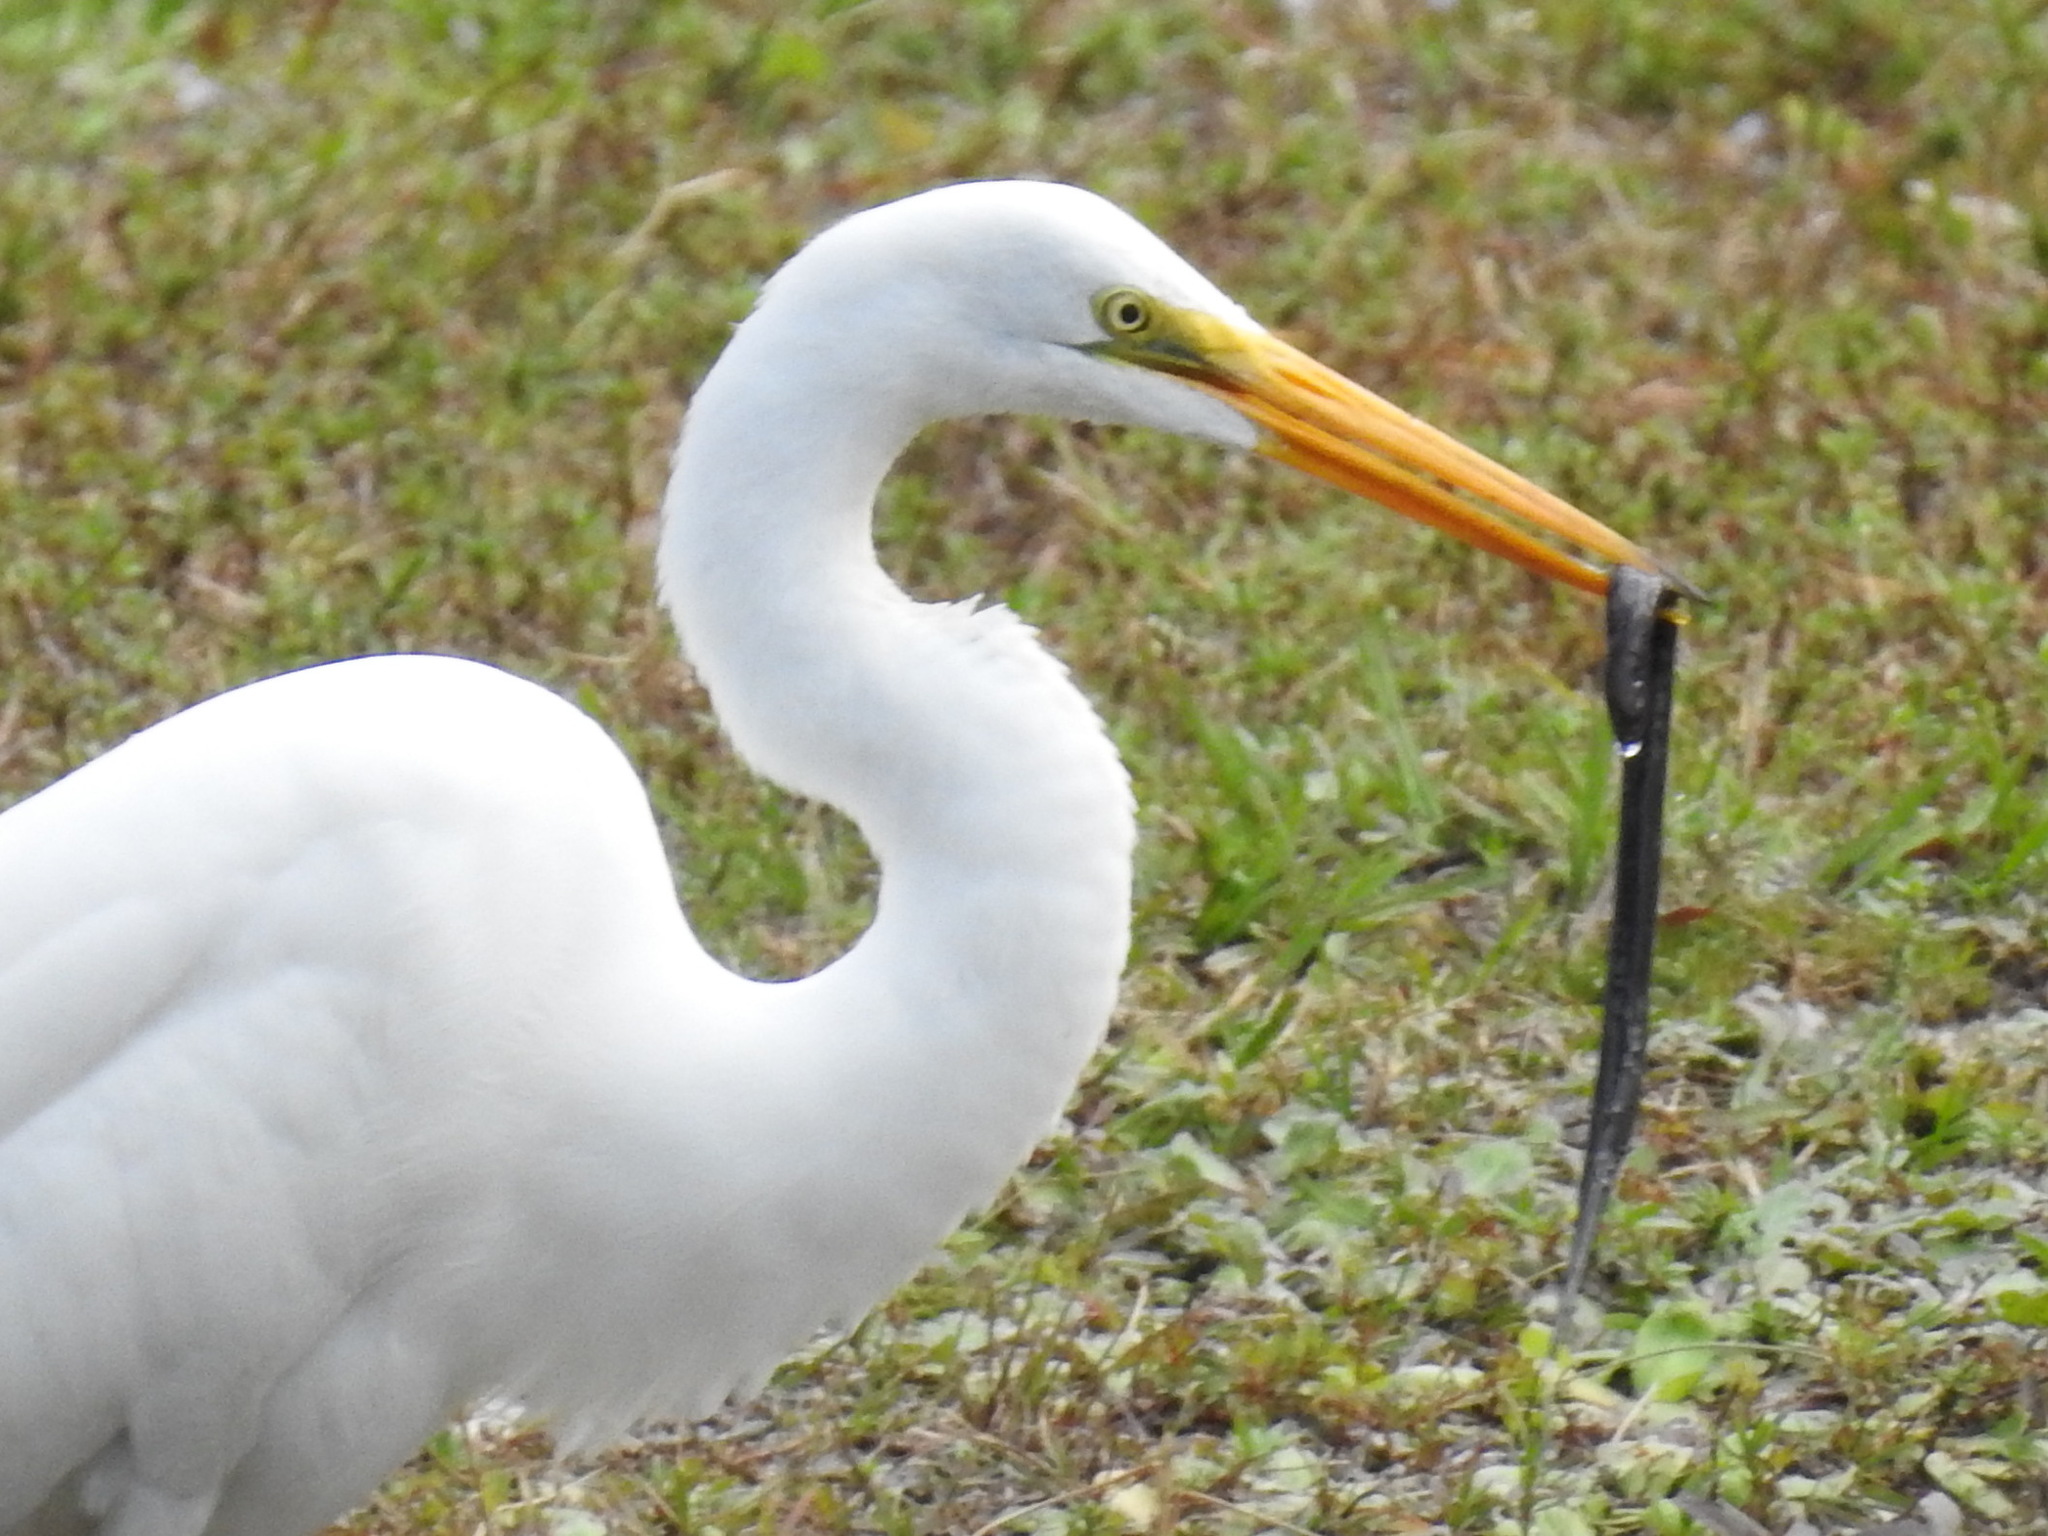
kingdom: Animalia
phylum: Chordata
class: Amphibia
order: Caudata
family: Amphiumidae
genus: Amphiuma
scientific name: Amphiuma means
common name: Two-toed amphiuma
